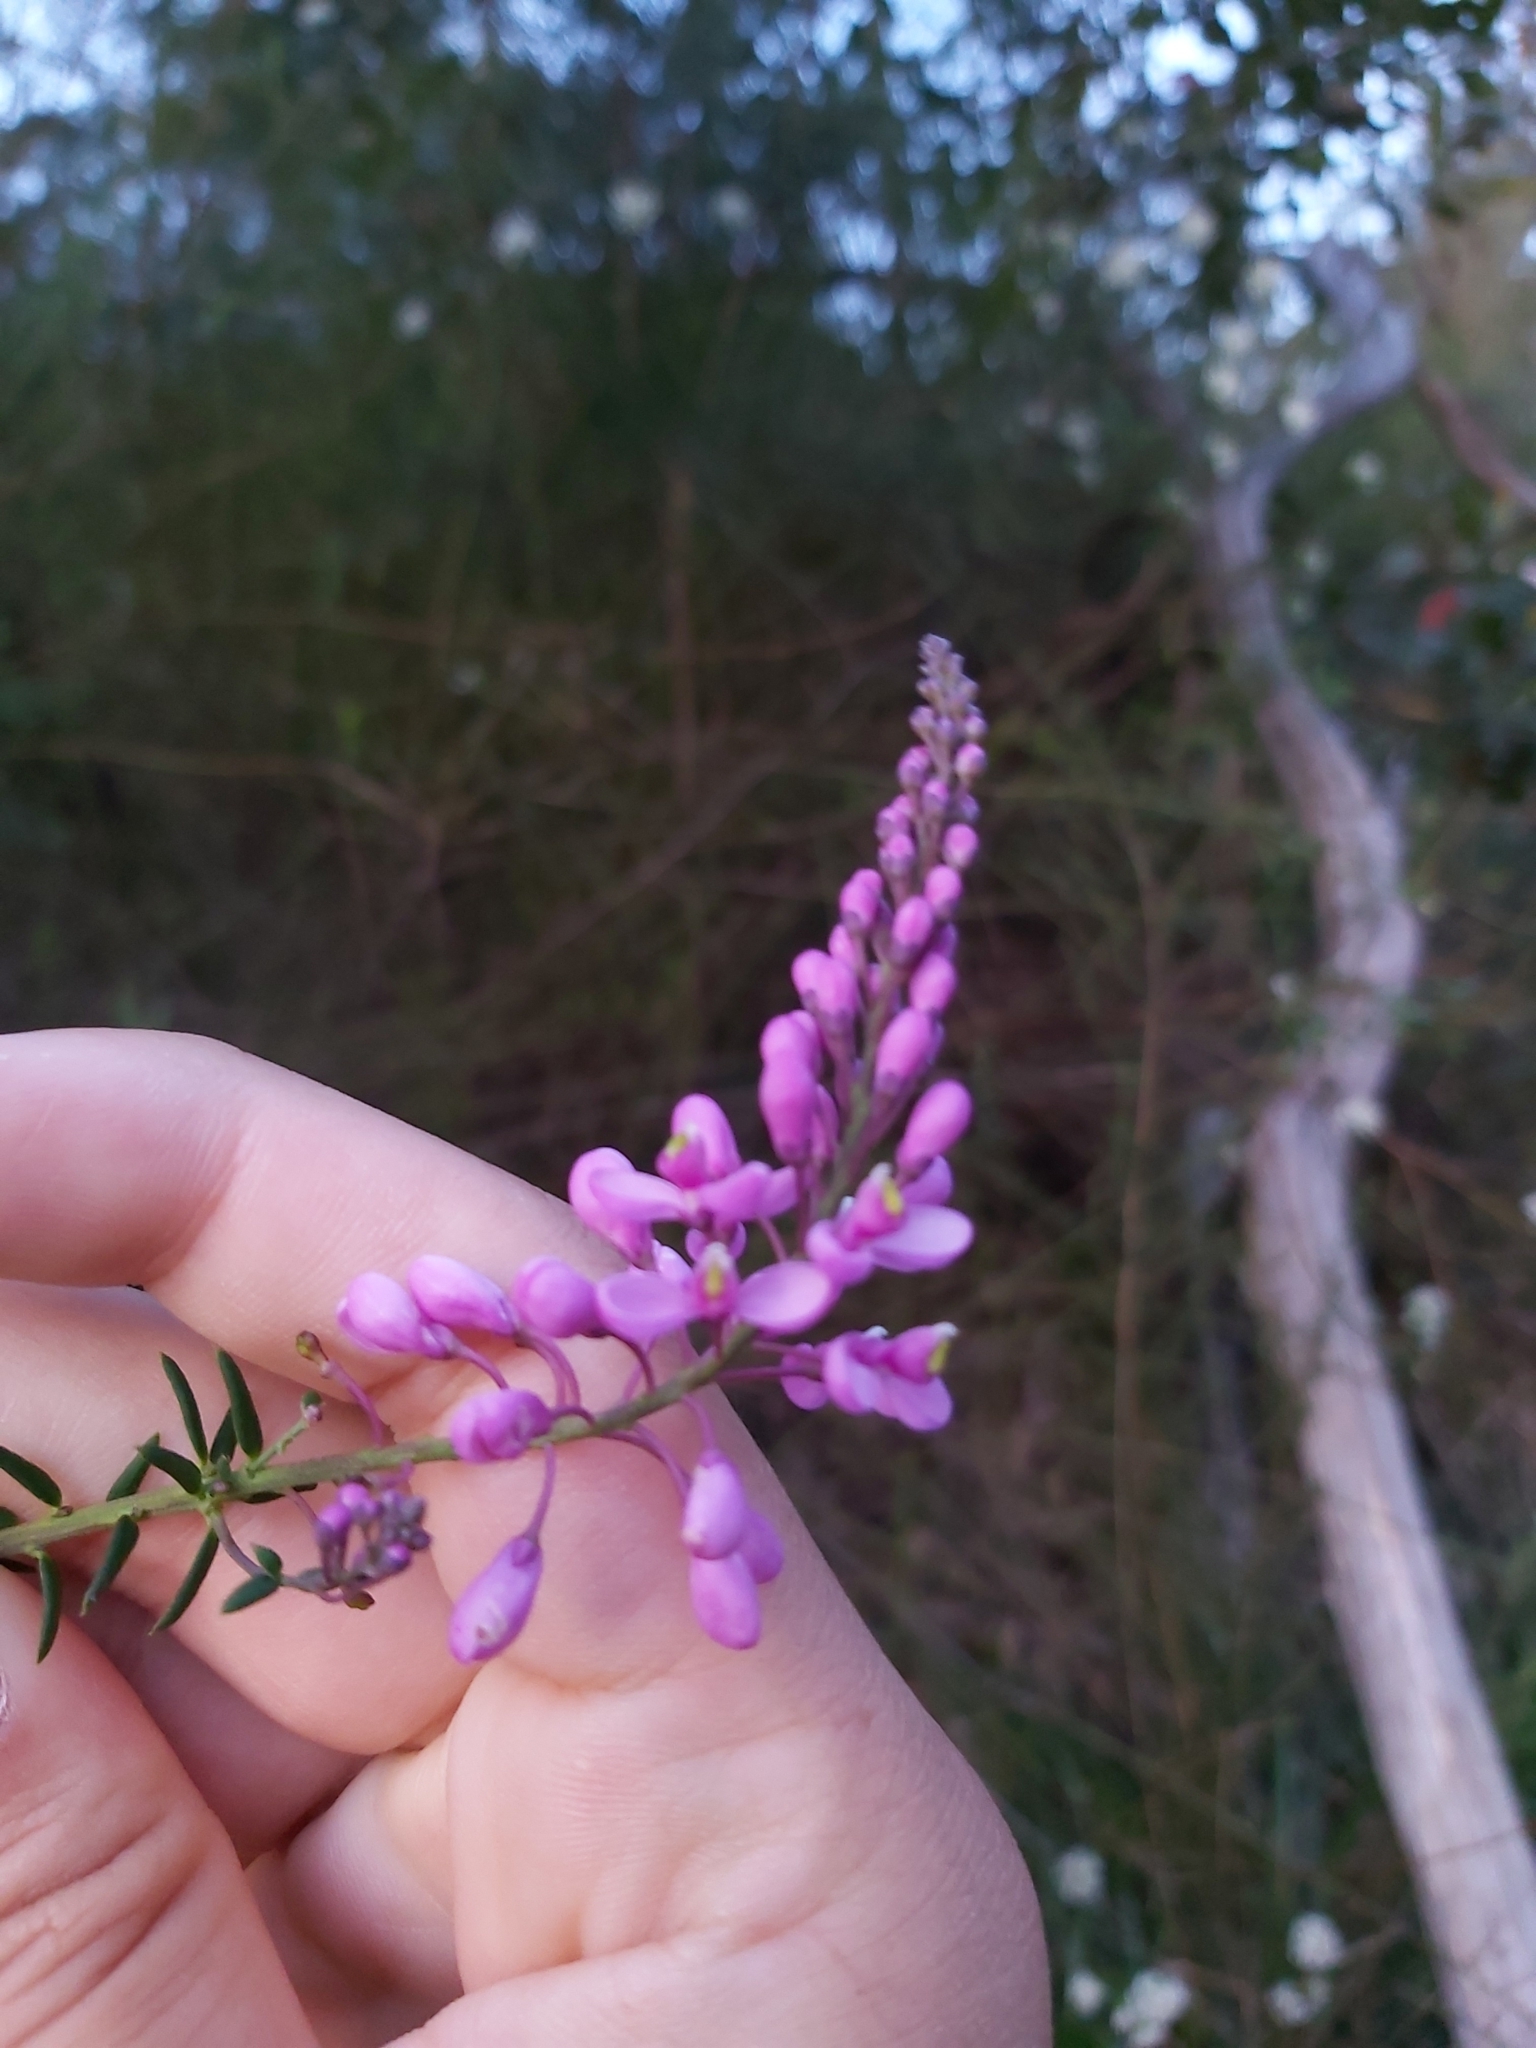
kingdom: Plantae
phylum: Tracheophyta
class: Magnoliopsida
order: Fabales
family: Polygalaceae
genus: Comesperma
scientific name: Comesperma ericinum
